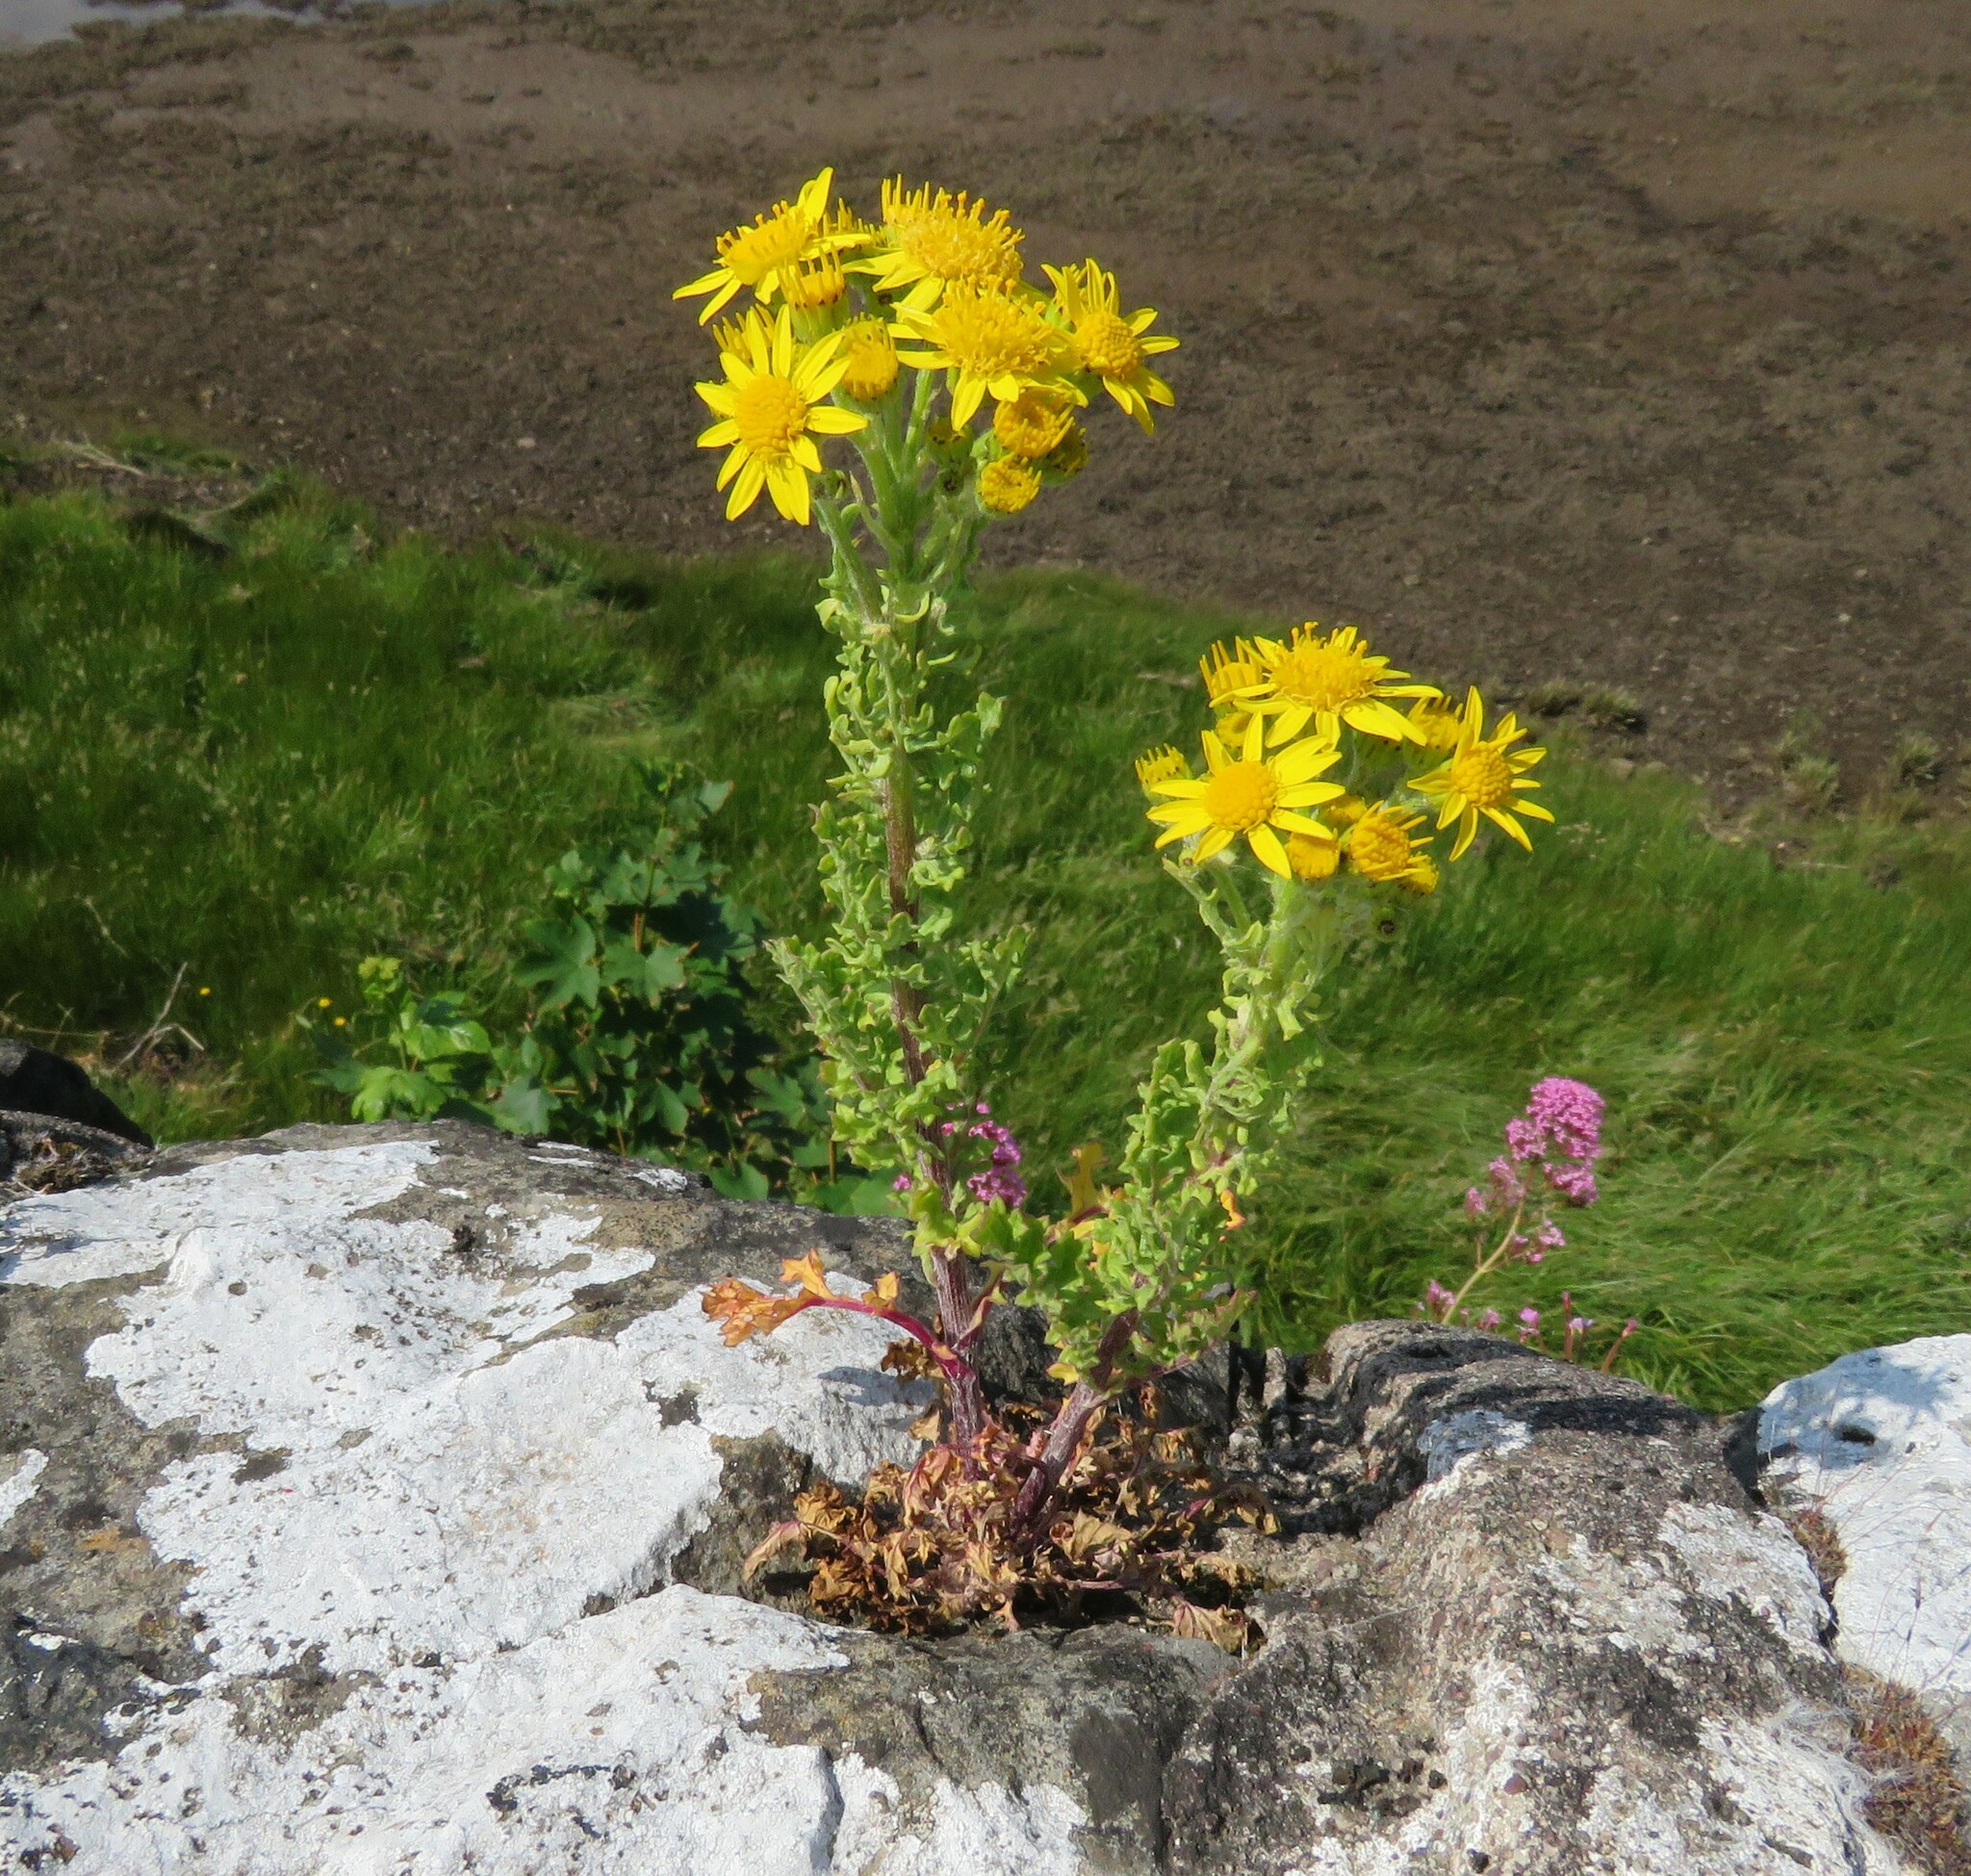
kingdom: Plantae
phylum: Tracheophyta
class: Magnoliopsida
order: Asterales
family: Asteraceae
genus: Jacobaea
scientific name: Jacobaea vulgaris
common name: Stinking willie
